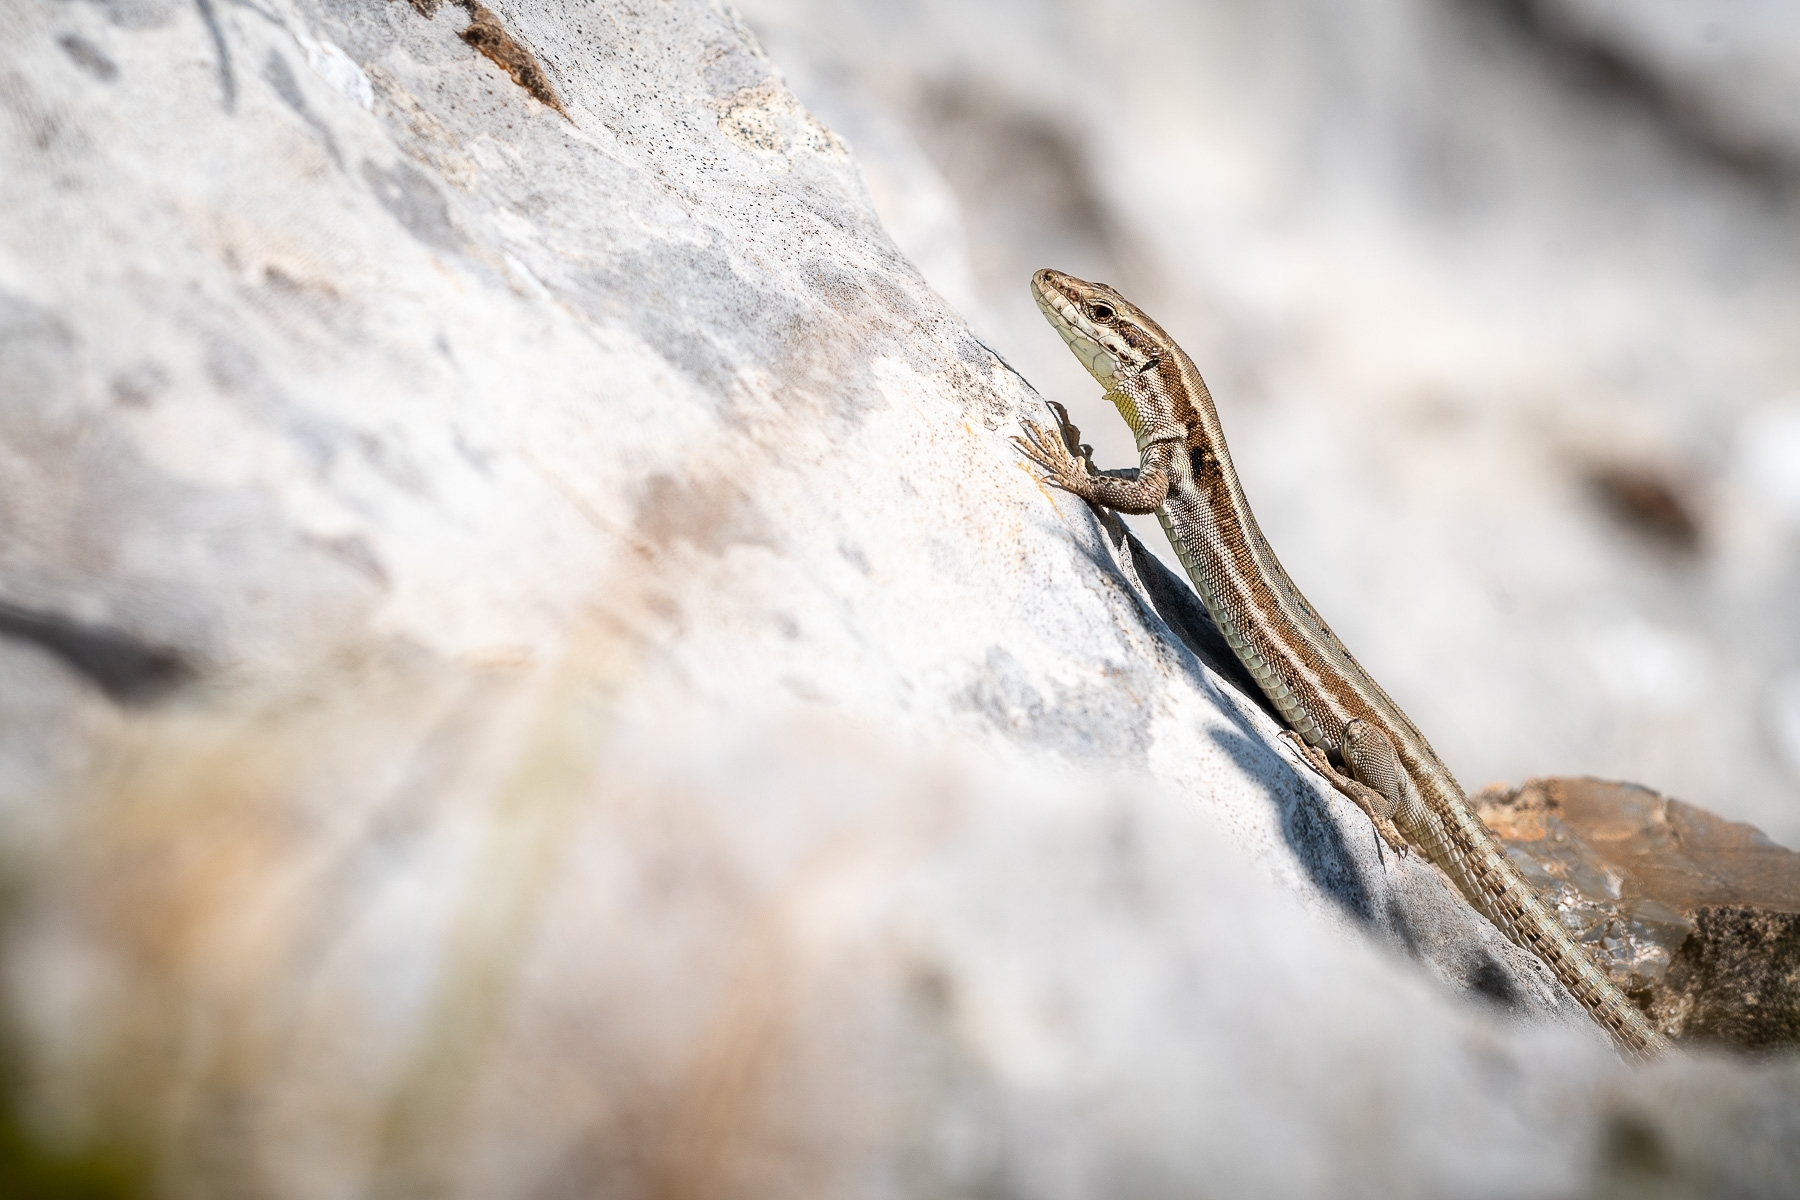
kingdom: Animalia
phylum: Chordata
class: Squamata
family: Lacertidae
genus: Podarcis
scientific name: Podarcis muralis
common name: Common wall lizard
